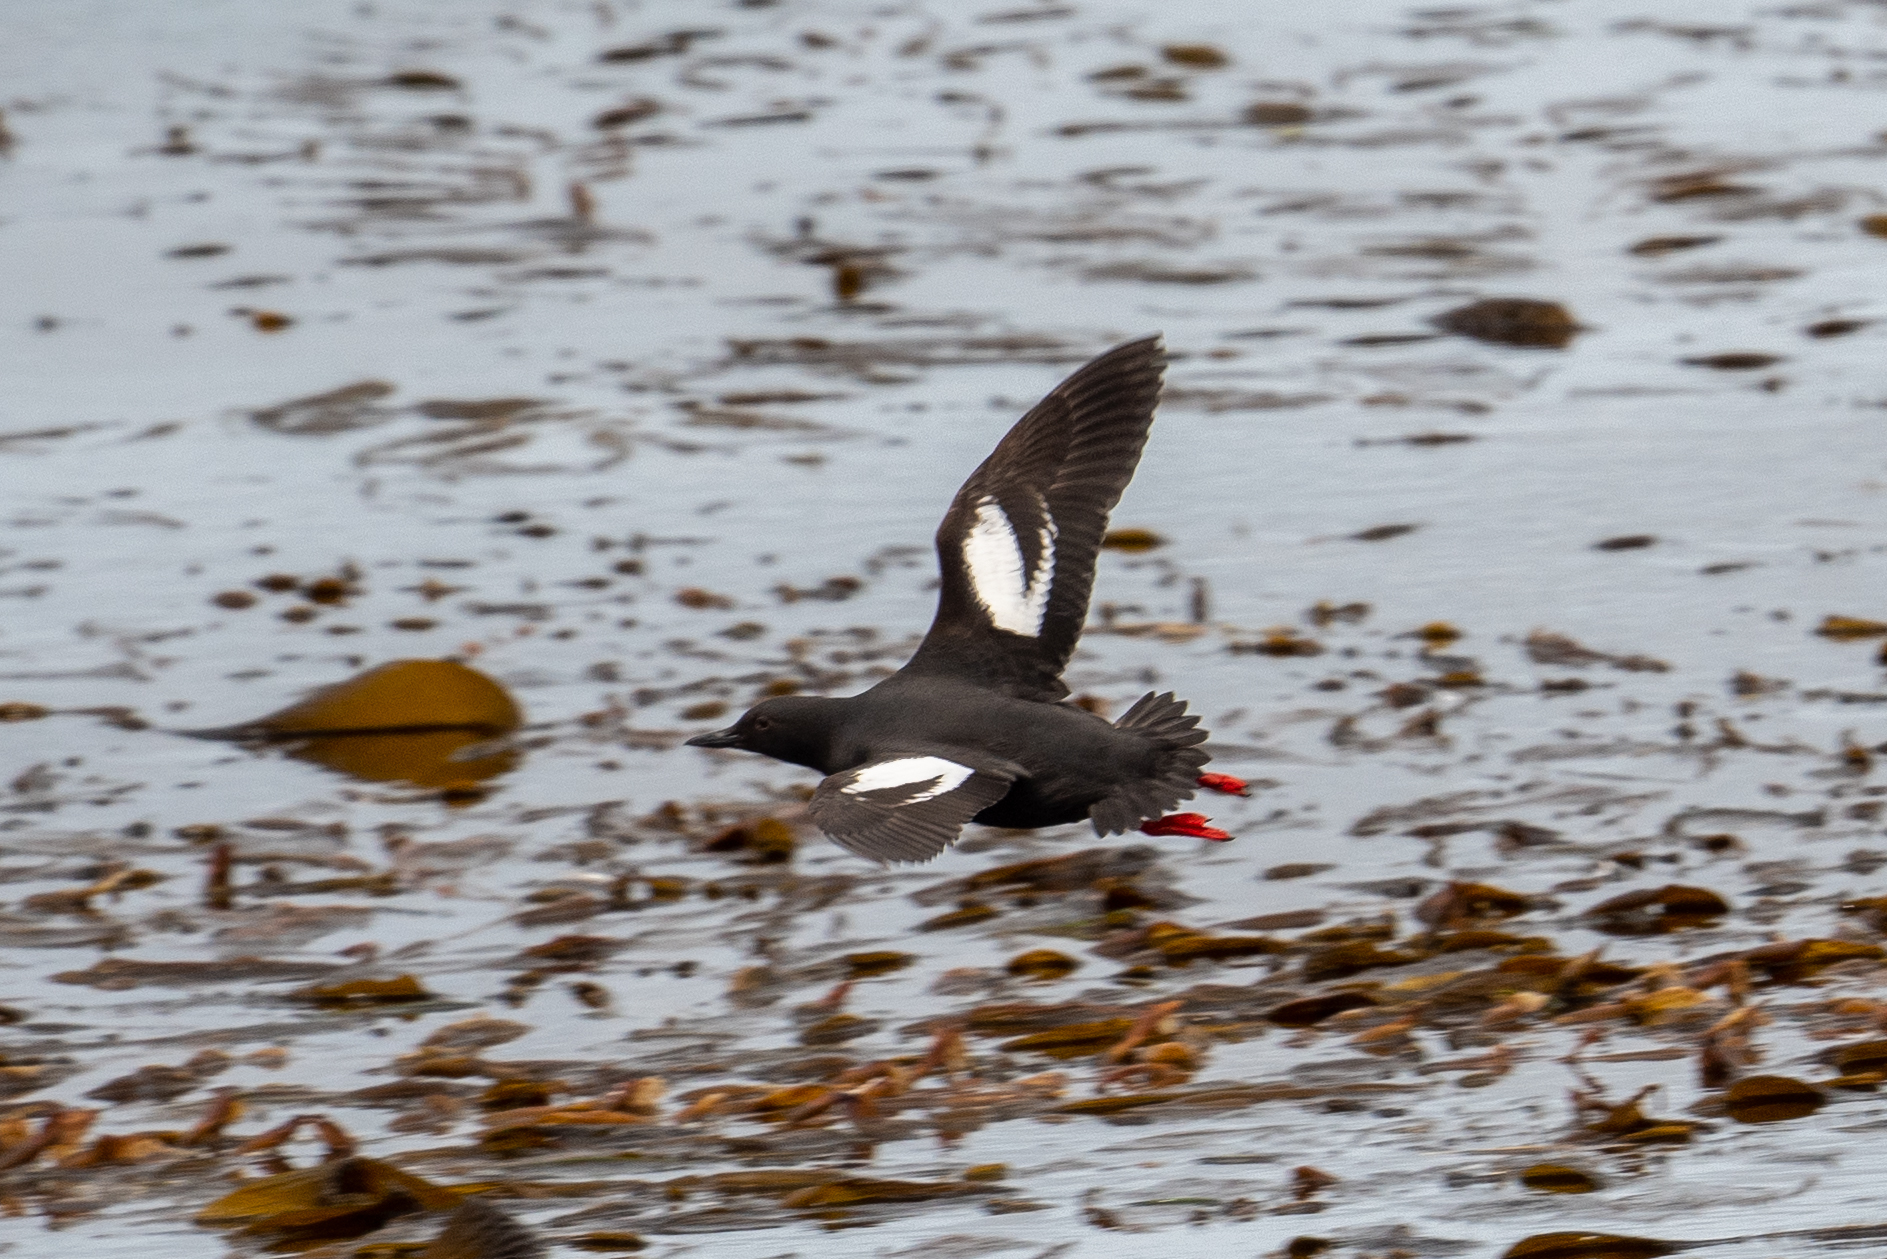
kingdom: Animalia
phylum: Chordata
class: Aves
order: Charadriiformes
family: Alcidae
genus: Cepphus
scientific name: Cepphus columba
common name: Pigeon guillemot
